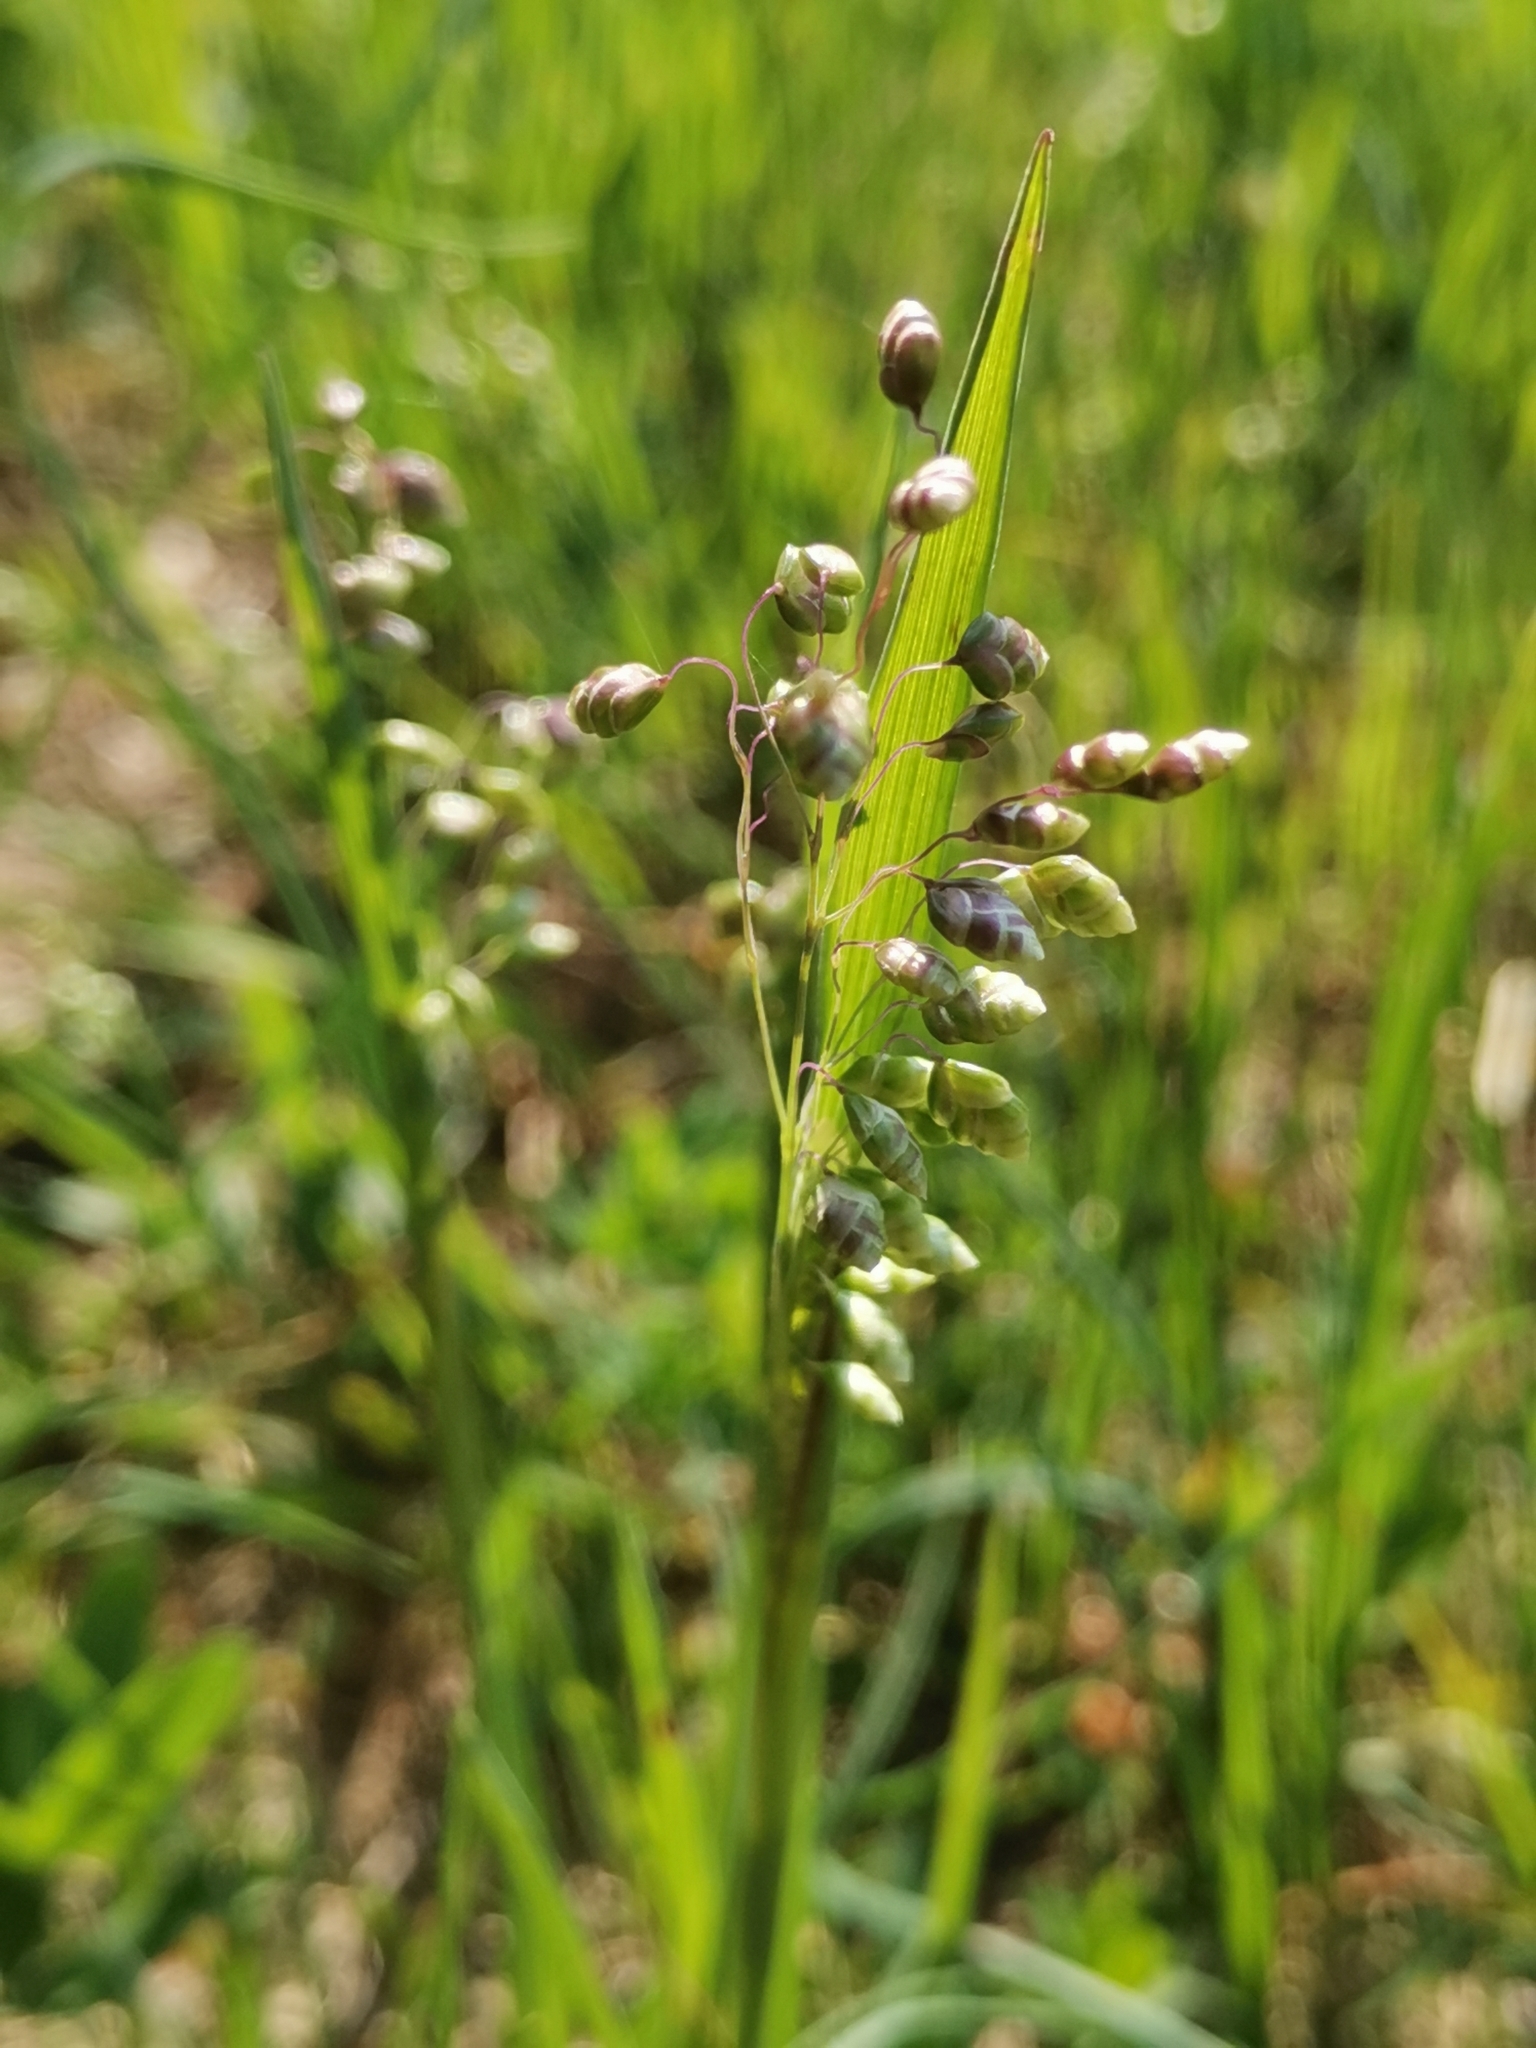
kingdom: Plantae
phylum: Tracheophyta
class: Liliopsida
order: Poales
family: Poaceae
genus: Briza
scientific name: Briza media
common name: Quaking grass
